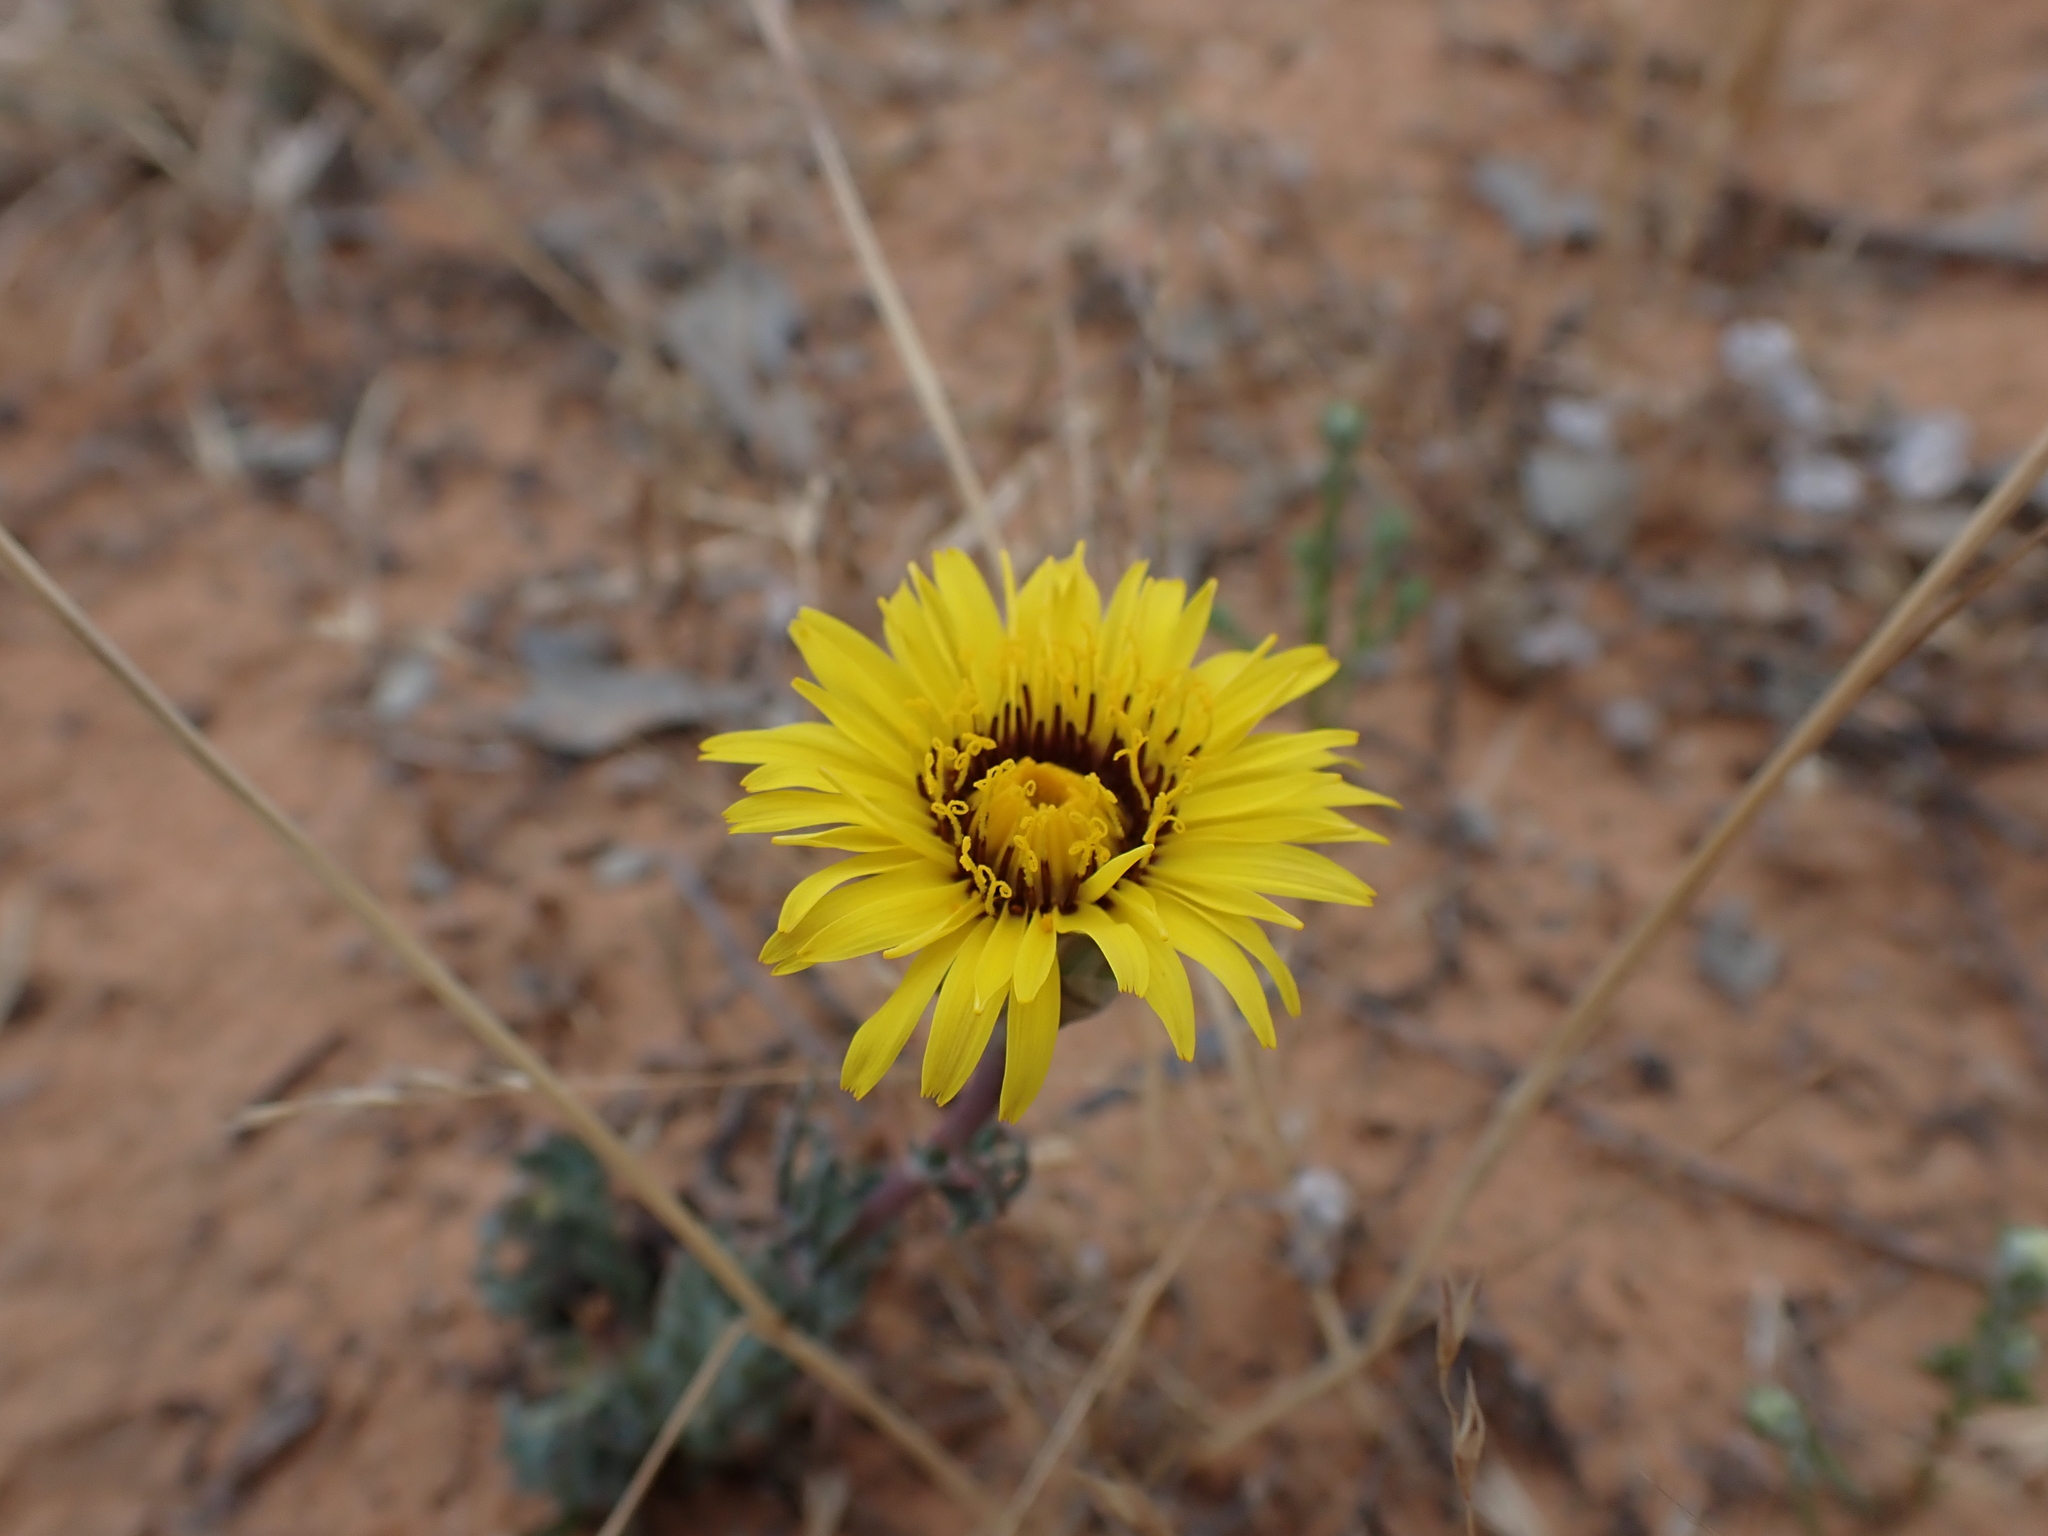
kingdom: Plantae
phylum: Tracheophyta
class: Magnoliopsida
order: Asterales
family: Asteraceae
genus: Reichardia
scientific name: Reichardia tingitana
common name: Reichardia
